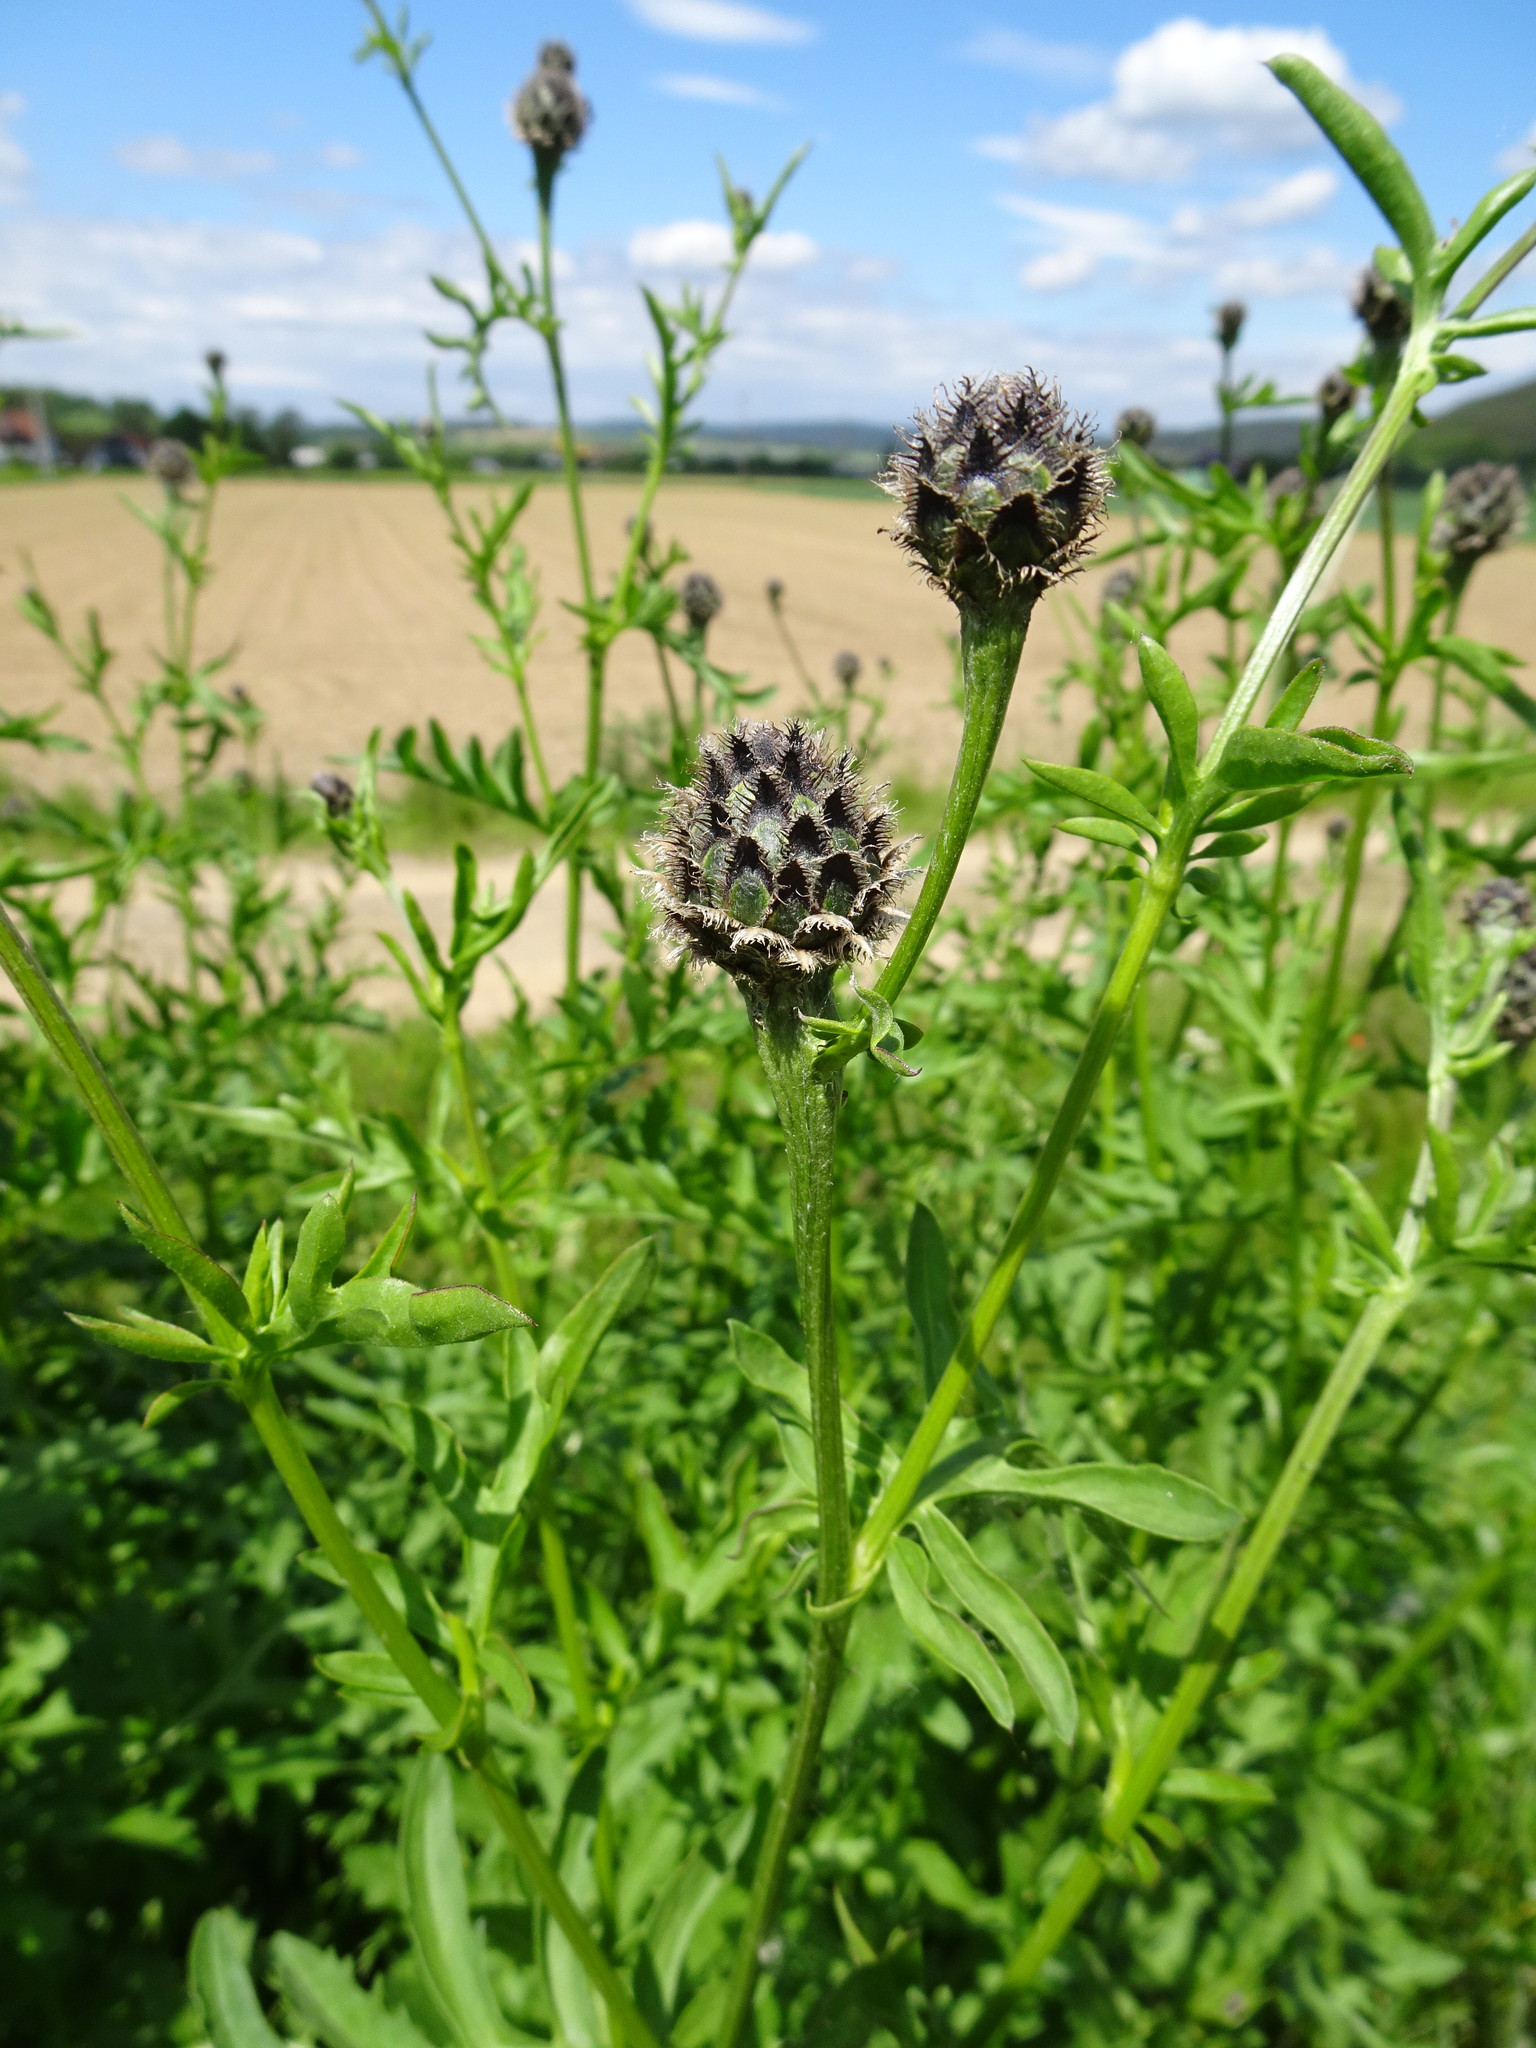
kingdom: Plantae
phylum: Tracheophyta
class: Magnoliopsida
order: Asterales
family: Asteraceae
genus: Centaurea
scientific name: Centaurea scabiosa
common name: Greater knapweed
